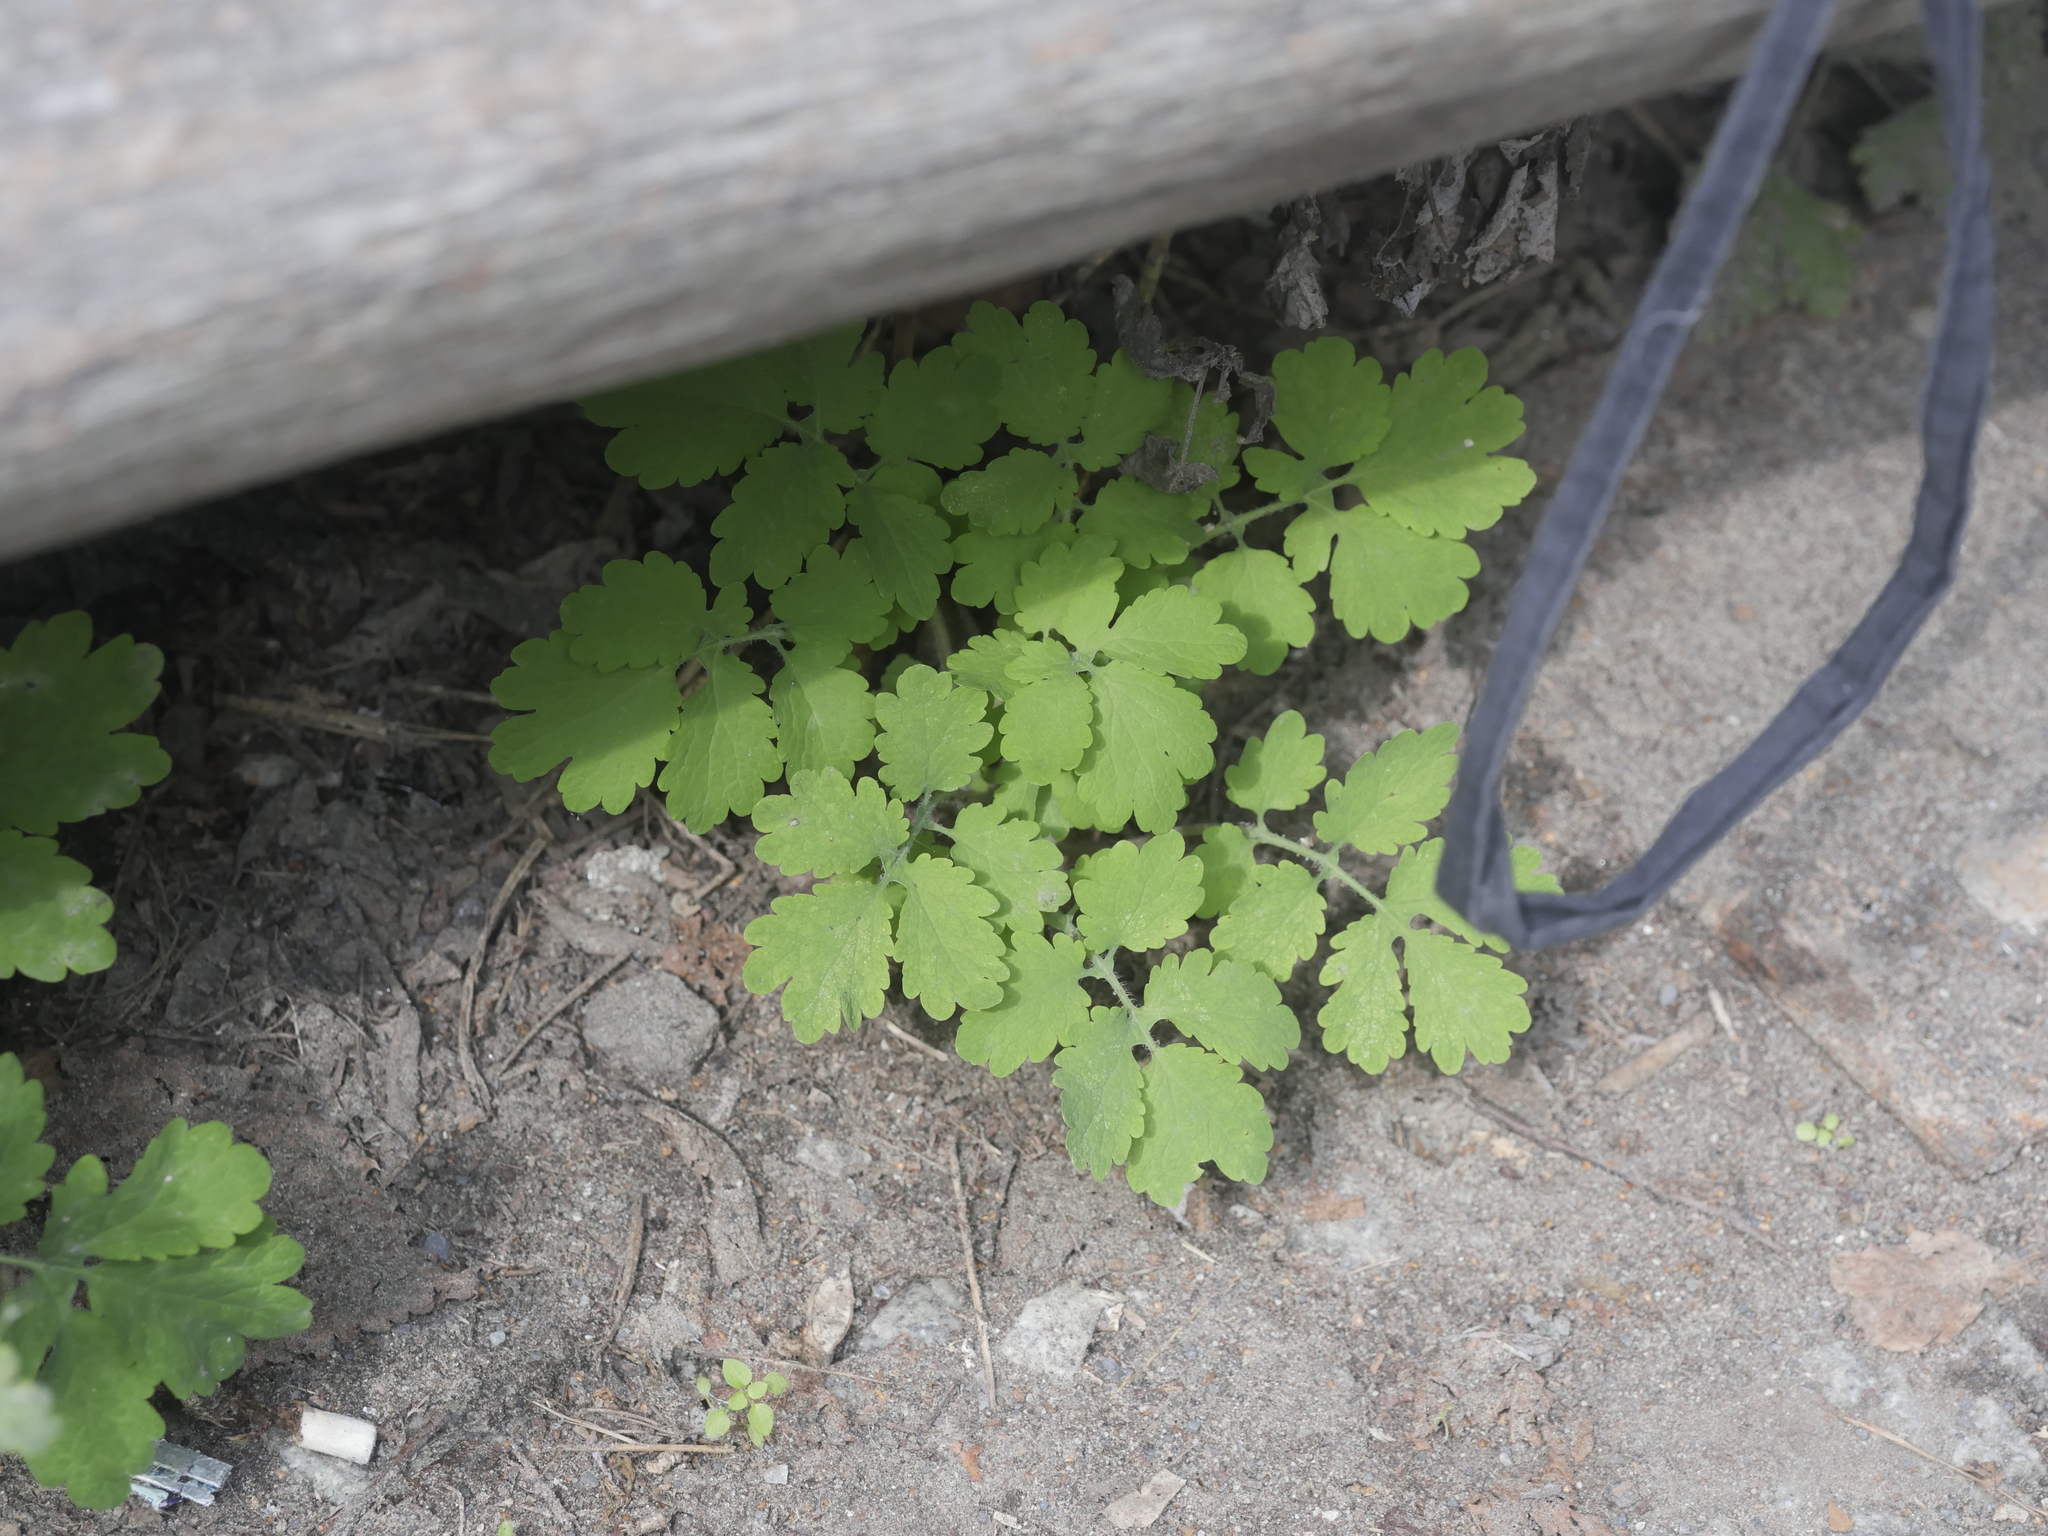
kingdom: Plantae
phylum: Tracheophyta
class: Magnoliopsida
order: Ranunculales
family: Papaveraceae
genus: Chelidonium
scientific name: Chelidonium majus
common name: Greater celandine
